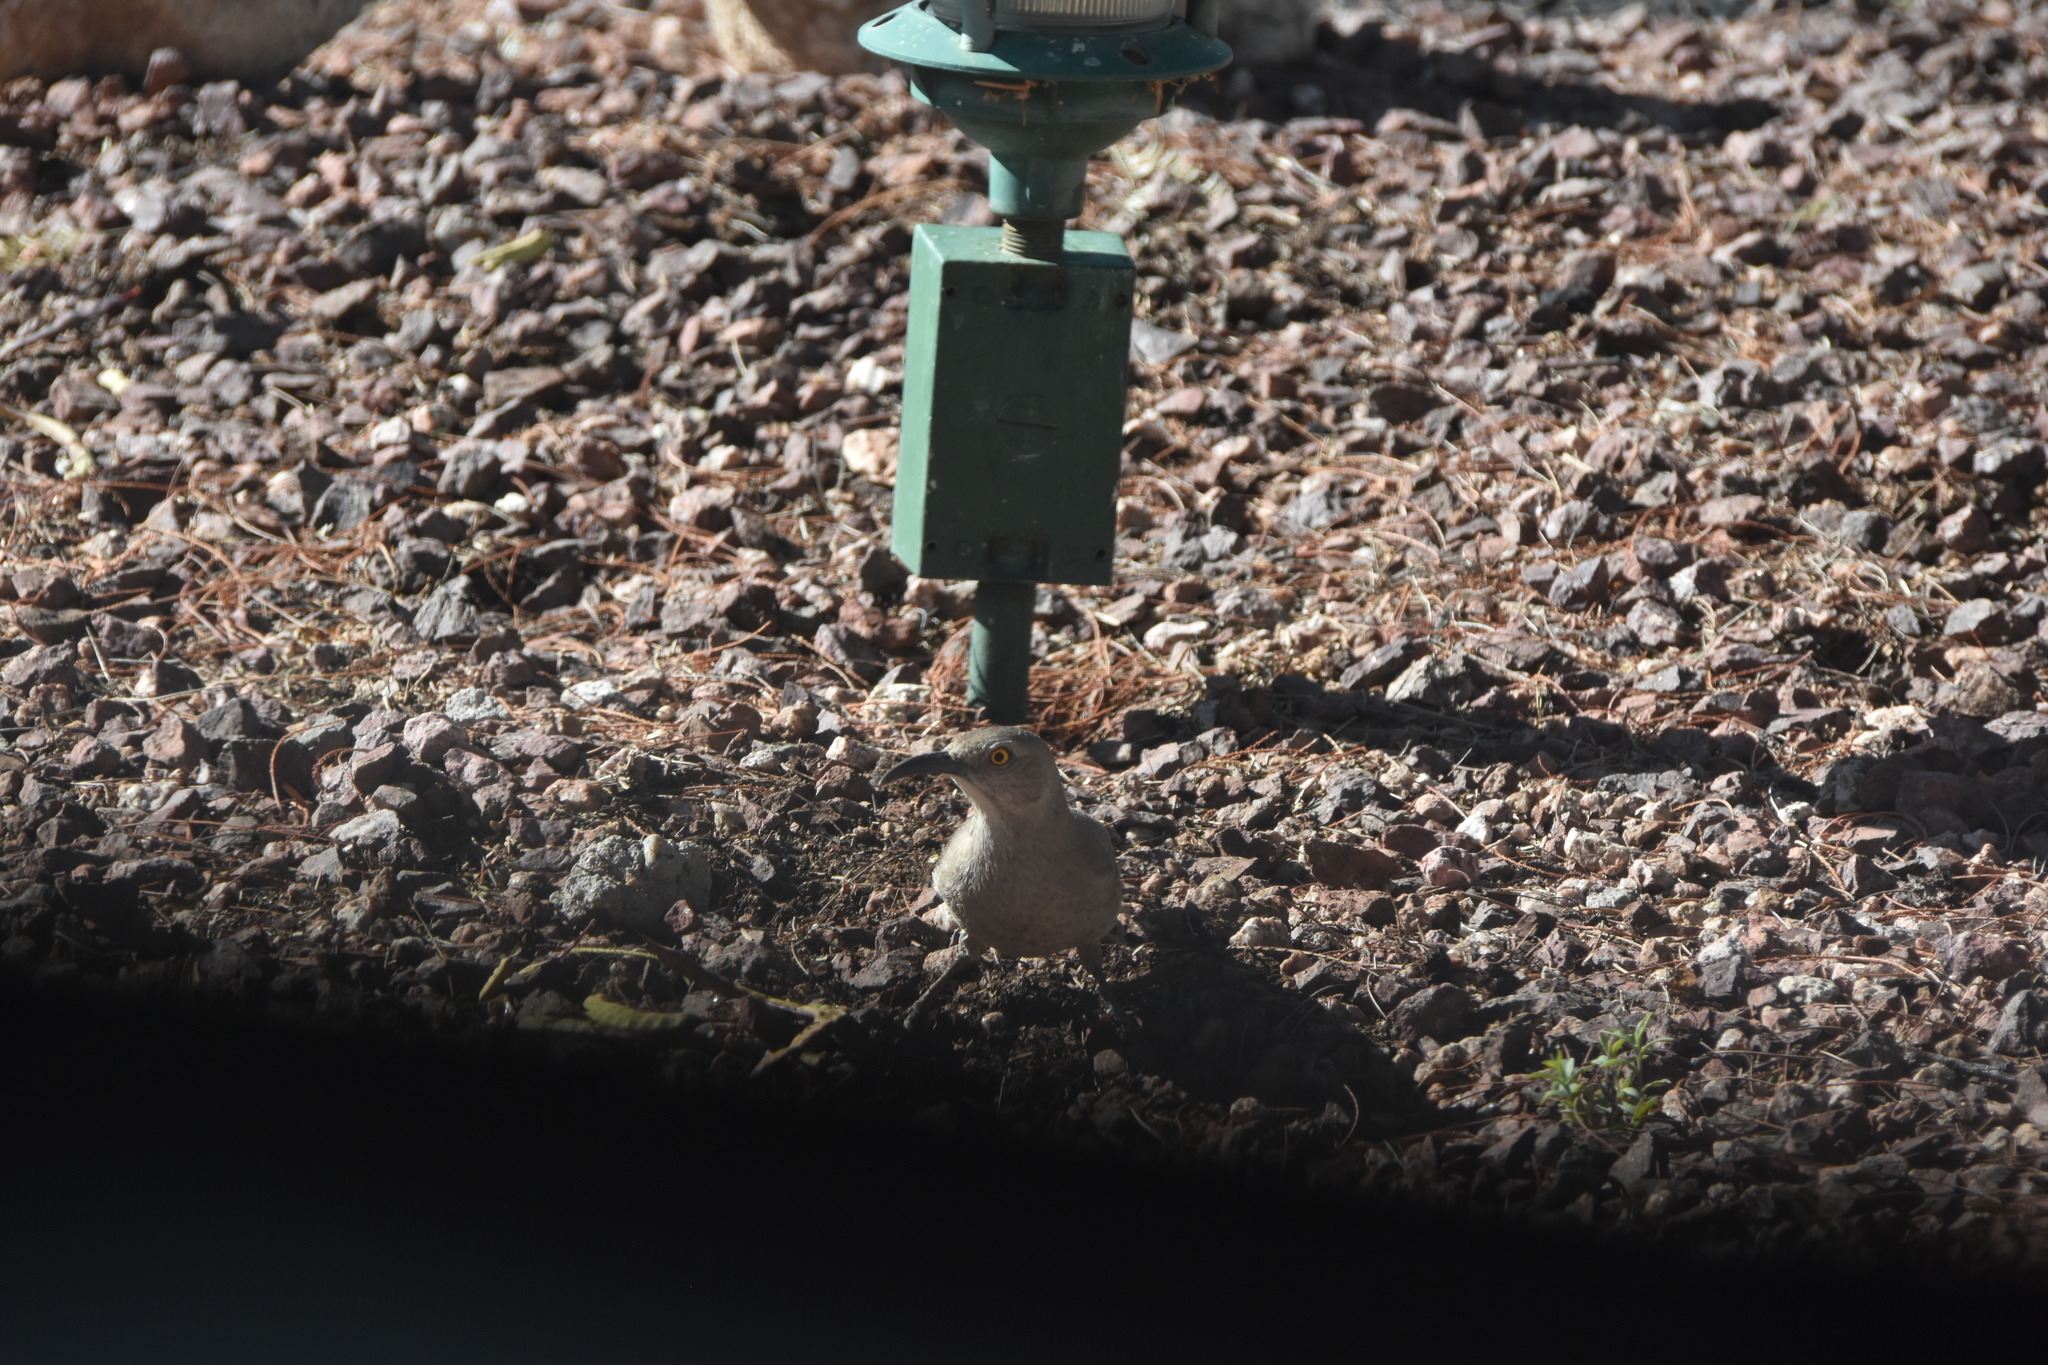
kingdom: Animalia
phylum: Chordata
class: Aves
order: Passeriformes
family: Mimidae
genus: Toxostoma
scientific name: Toxostoma curvirostre
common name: Curve-billed thrasher
